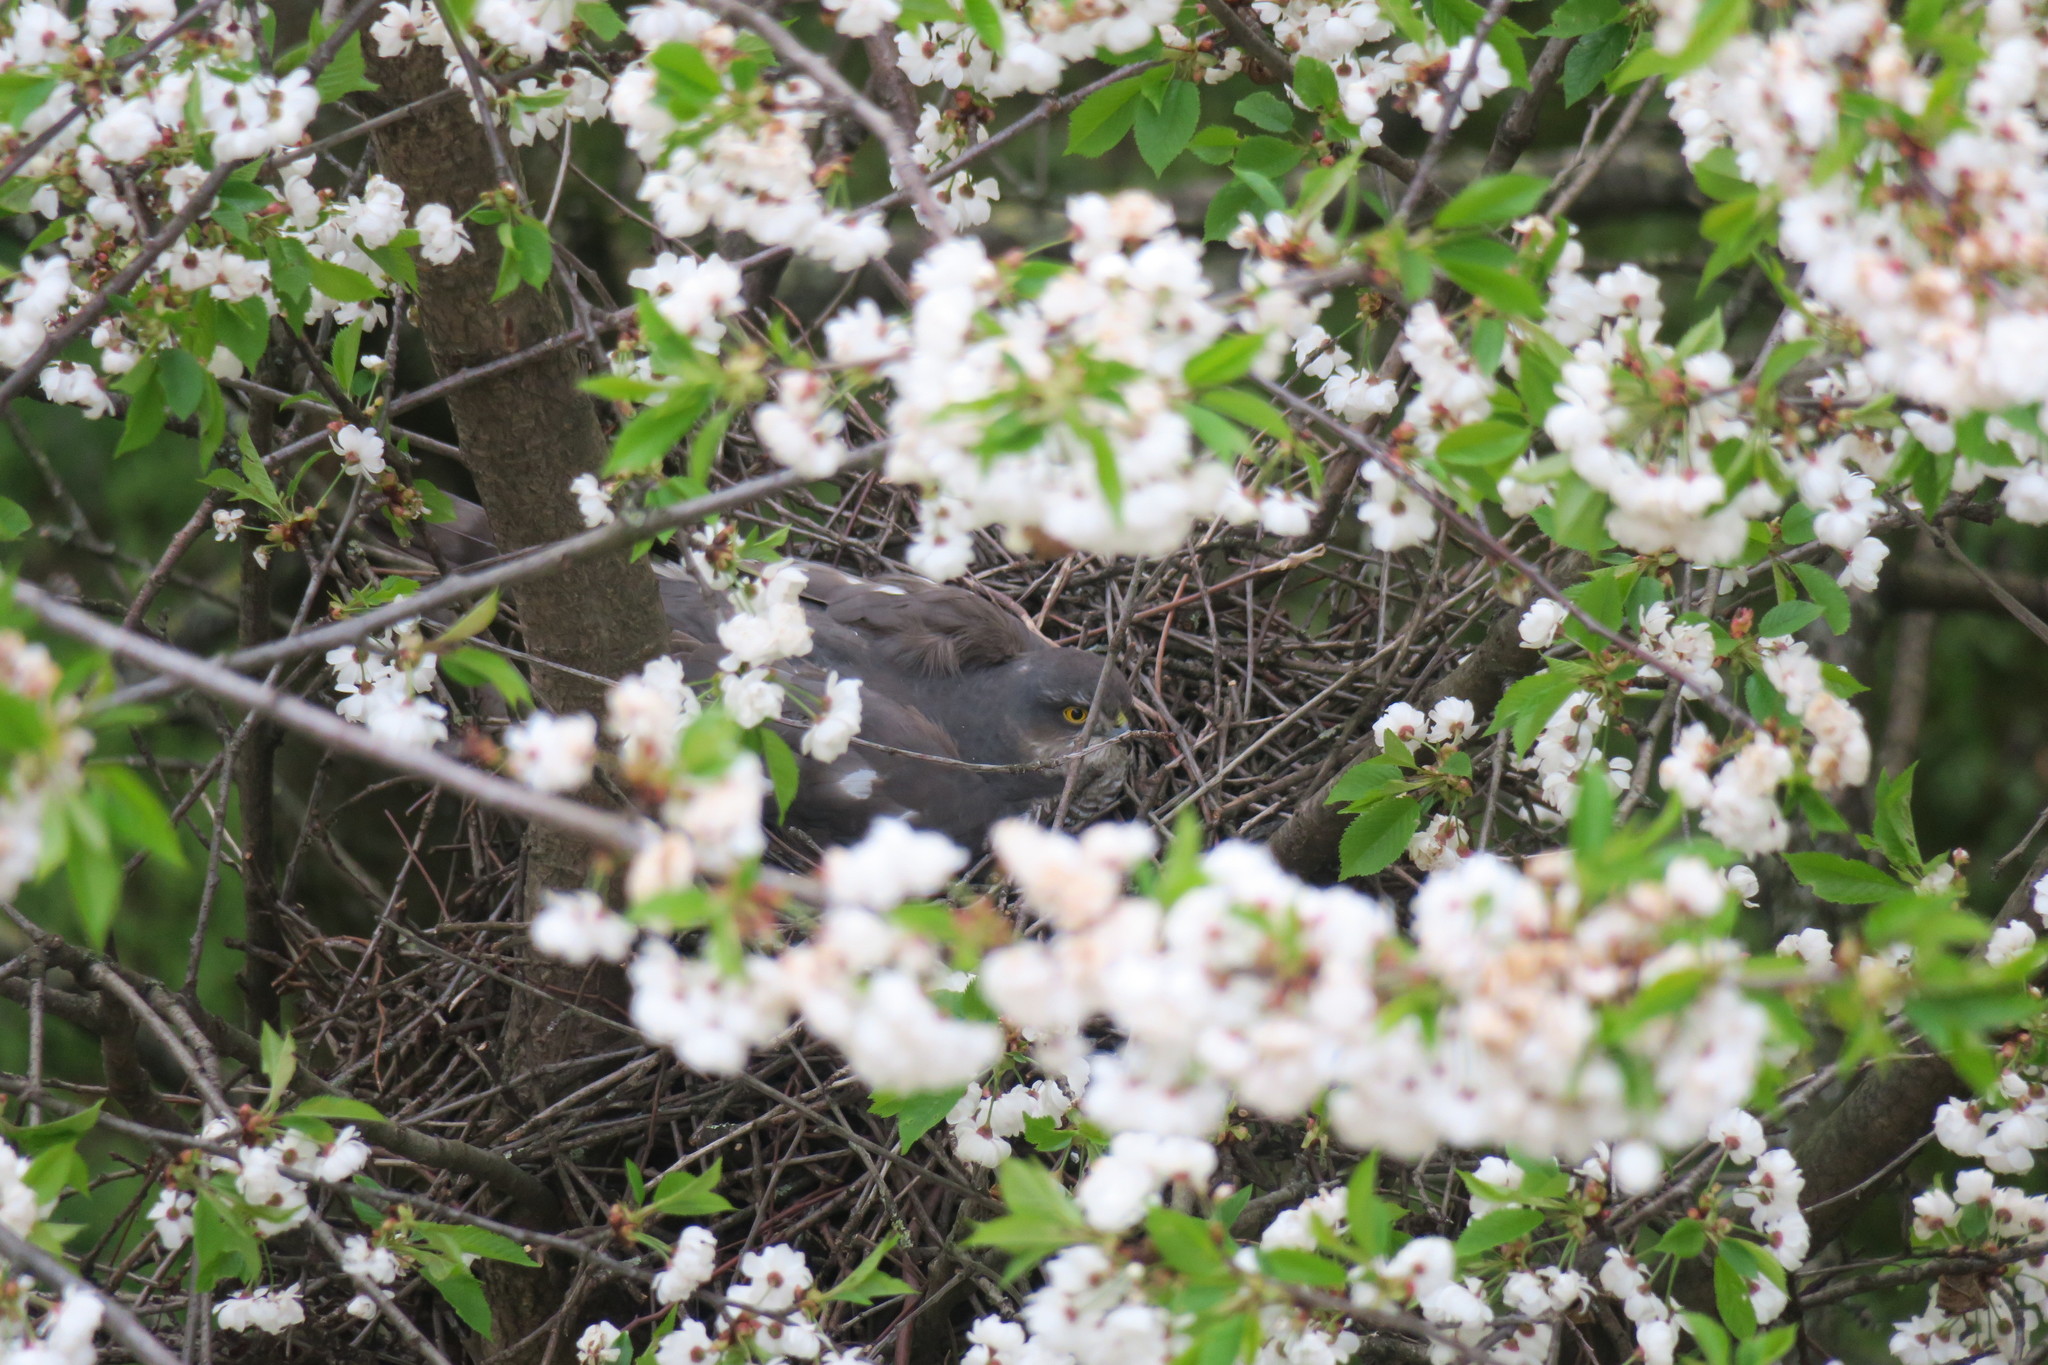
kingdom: Animalia
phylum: Chordata
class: Aves
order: Accipitriformes
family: Accipitridae
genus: Accipiter
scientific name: Accipiter nisus
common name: Eurasian sparrowhawk
